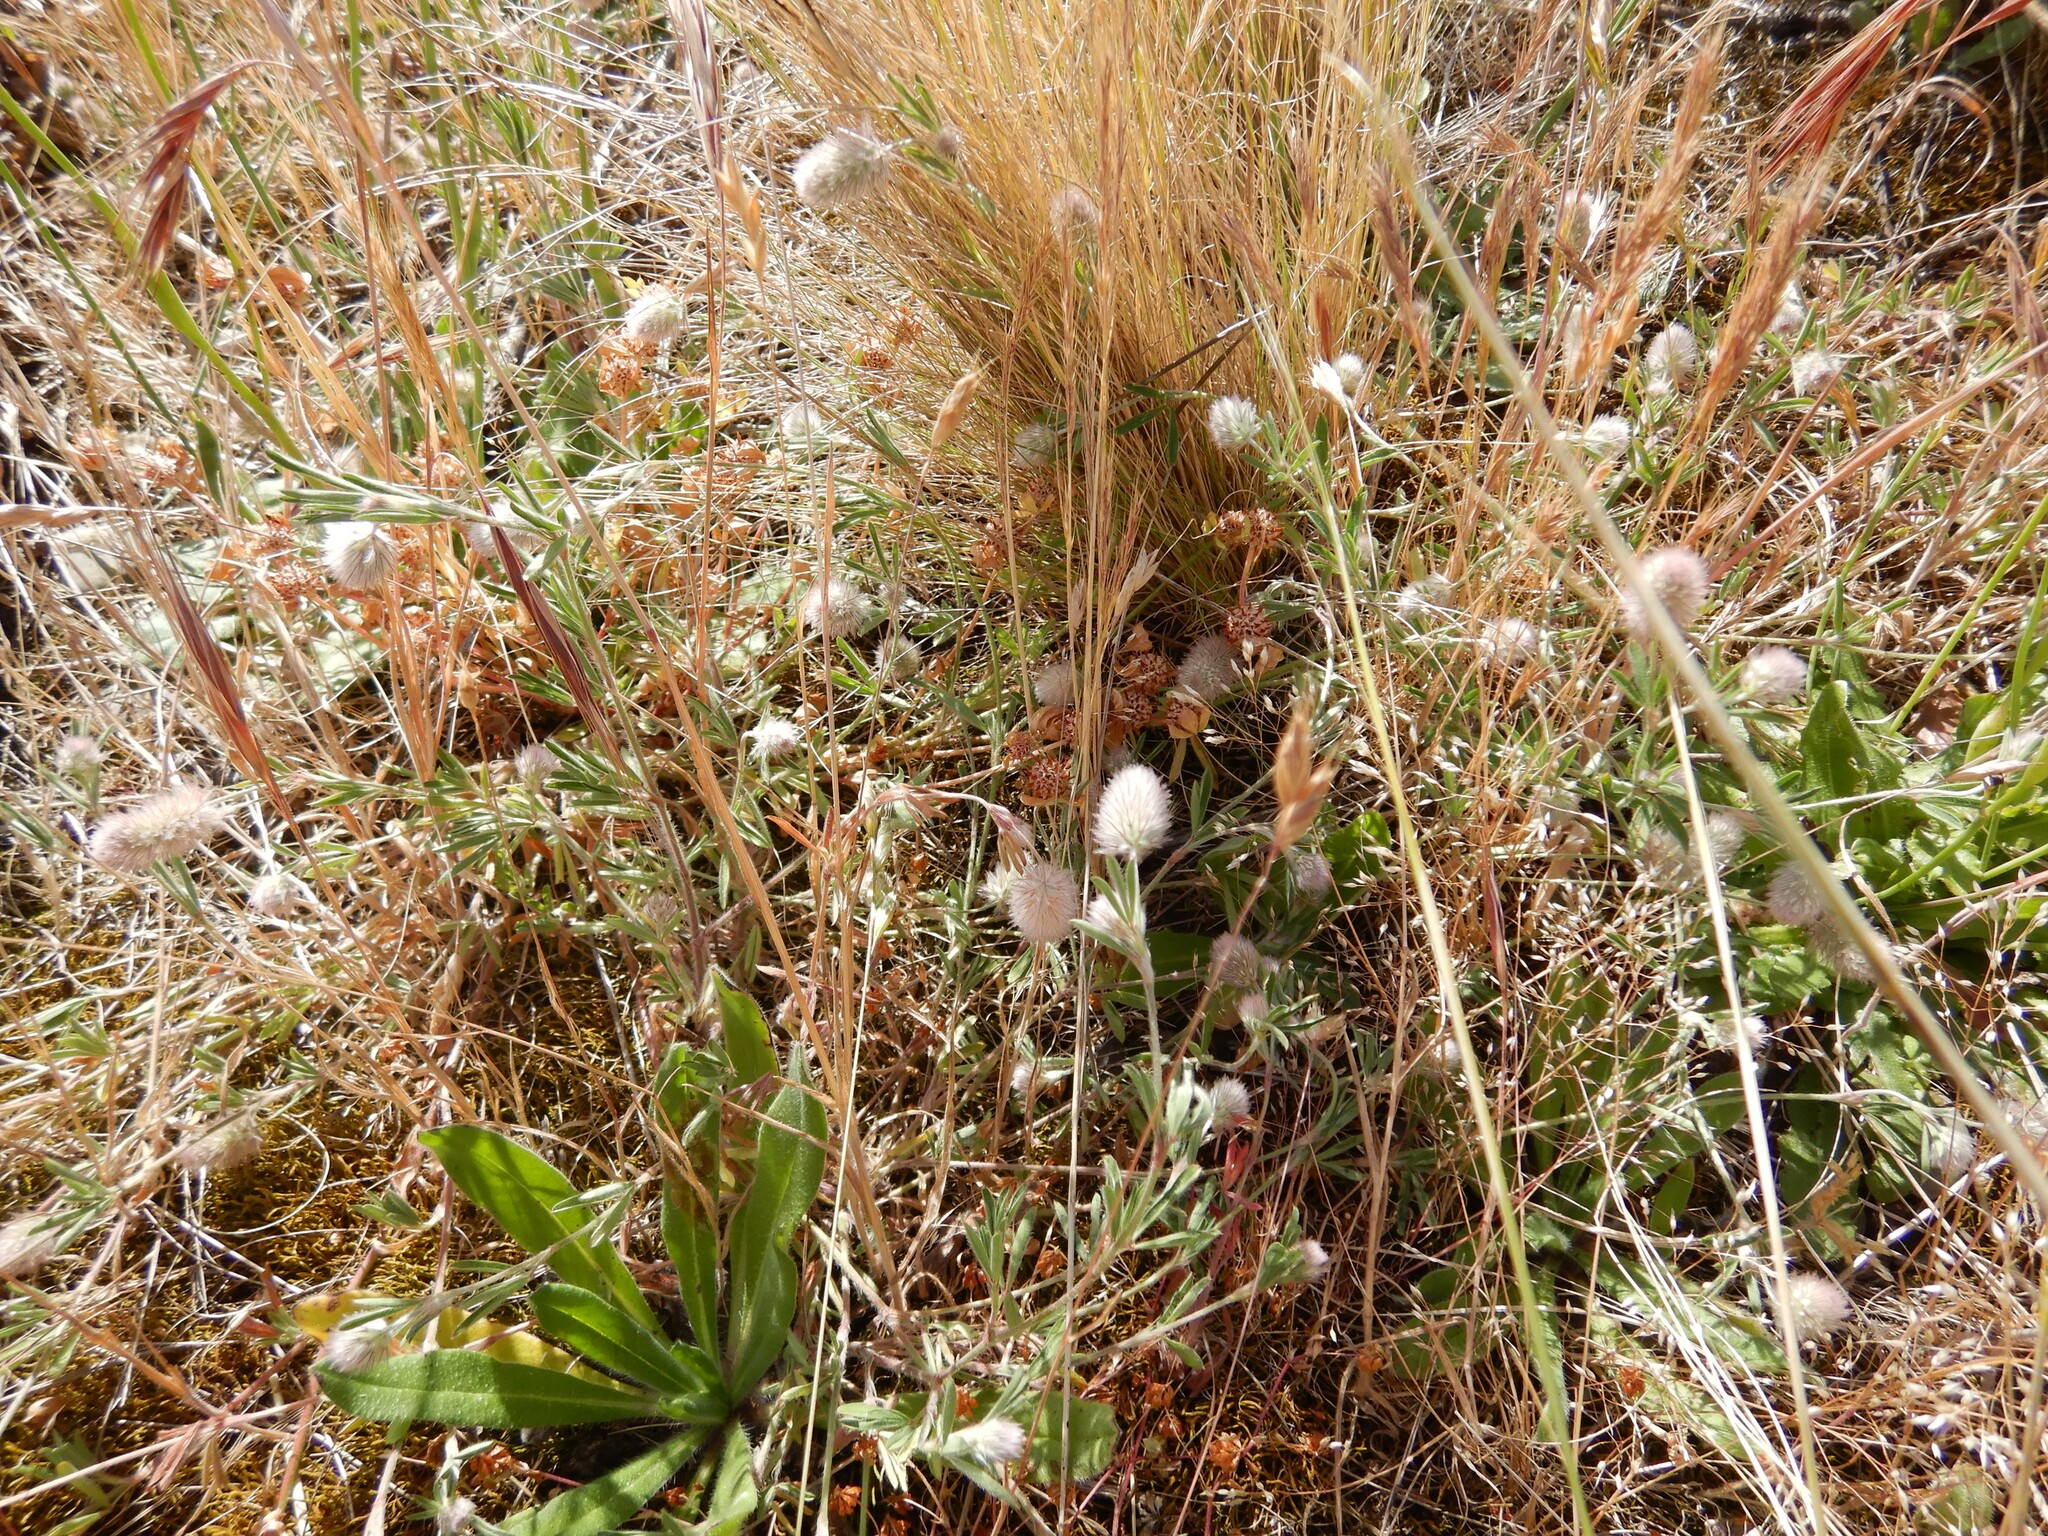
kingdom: Plantae
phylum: Tracheophyta
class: Magnoliopsida
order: Fabales
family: Fabaceae
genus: Trifolium
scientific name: Trifolium arvense
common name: Hare's-foot clover
